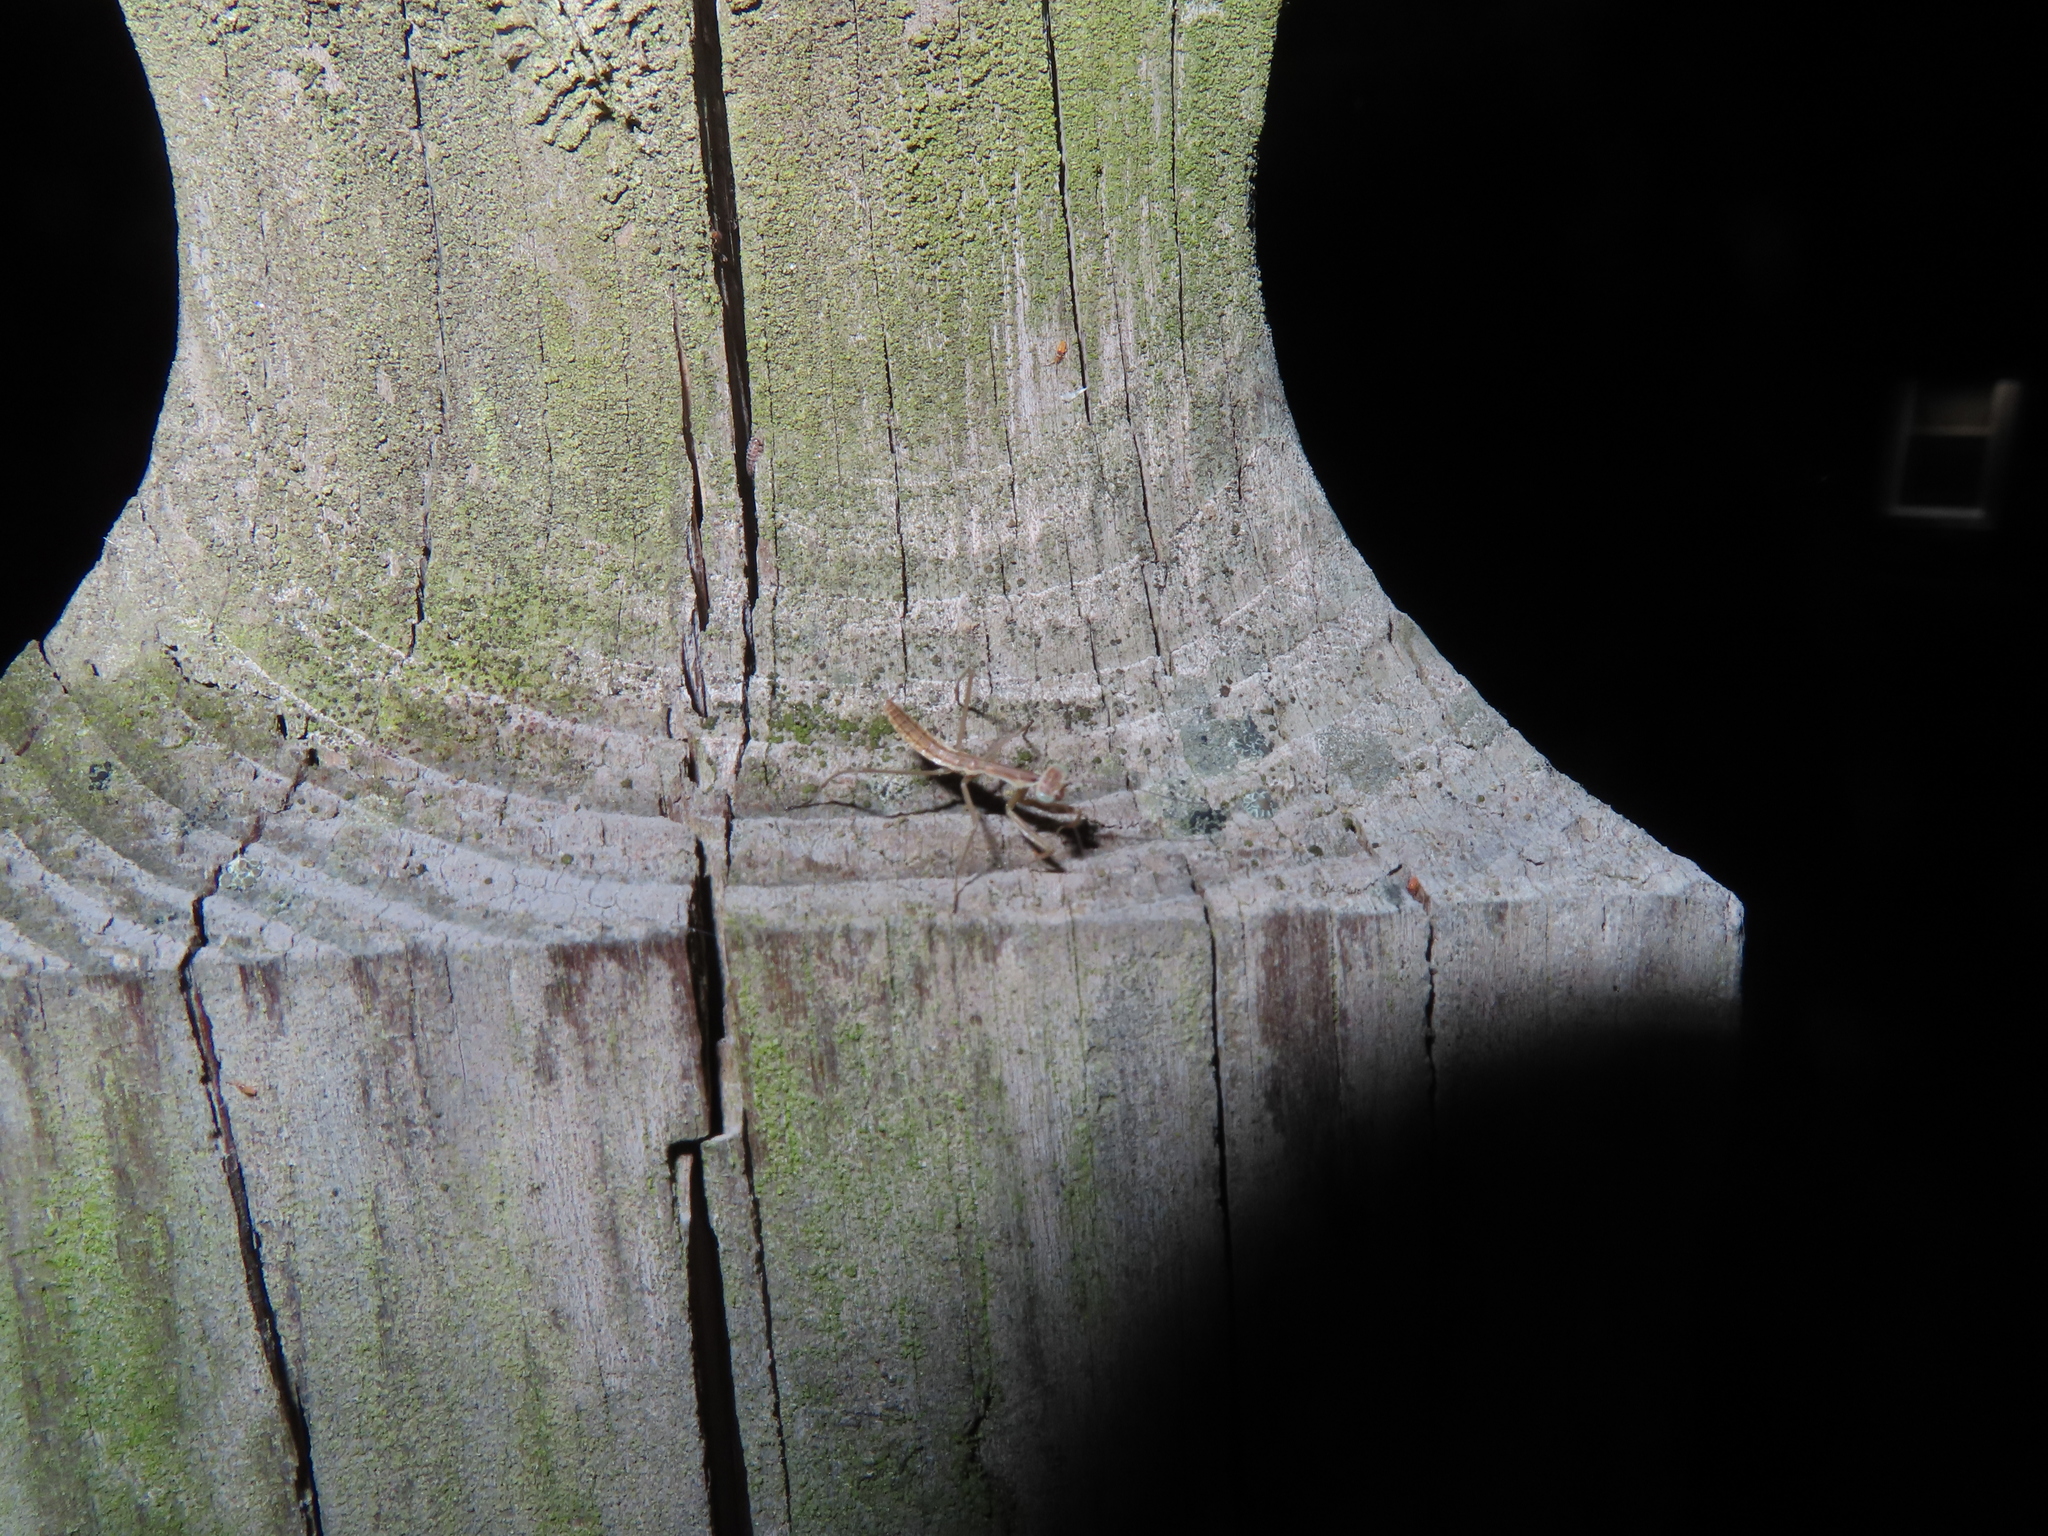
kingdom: Animalia
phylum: Arthropoda
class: Insecta
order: Mantodea
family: Mantidae
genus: Tenodera
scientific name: Tenodera sinensis
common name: Chinese mantis
